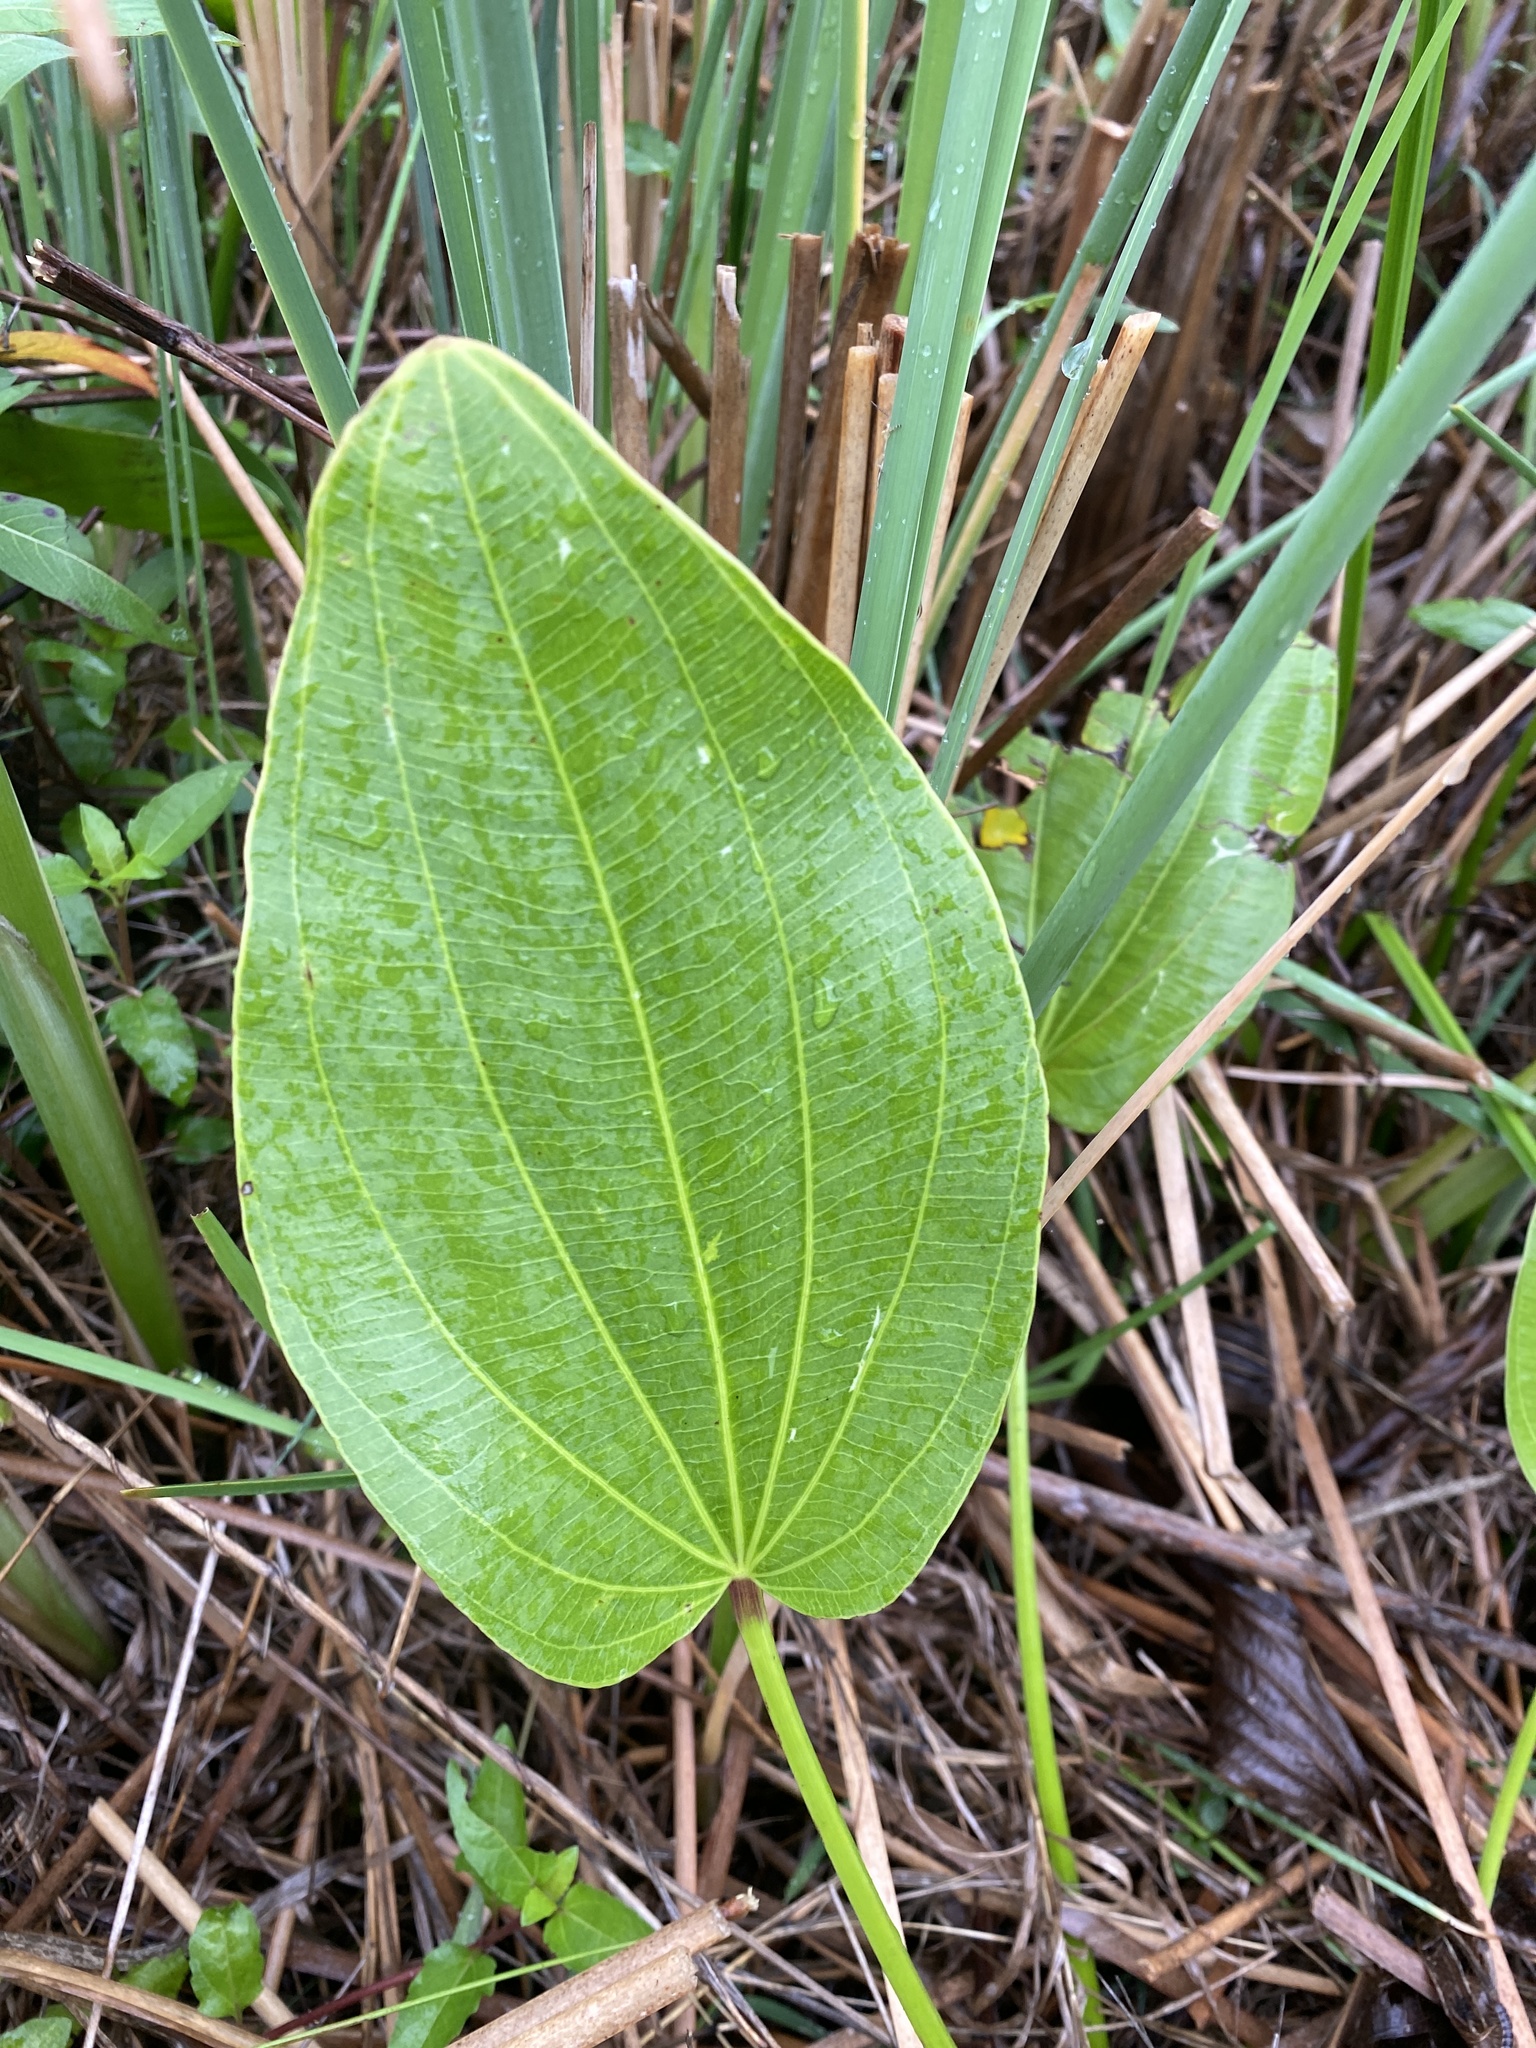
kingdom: Plantae
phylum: Tracheophyta
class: Liliopsida
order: Alismatales
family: Alismataceae
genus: Aquarius
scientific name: Aquarius cordifolius
